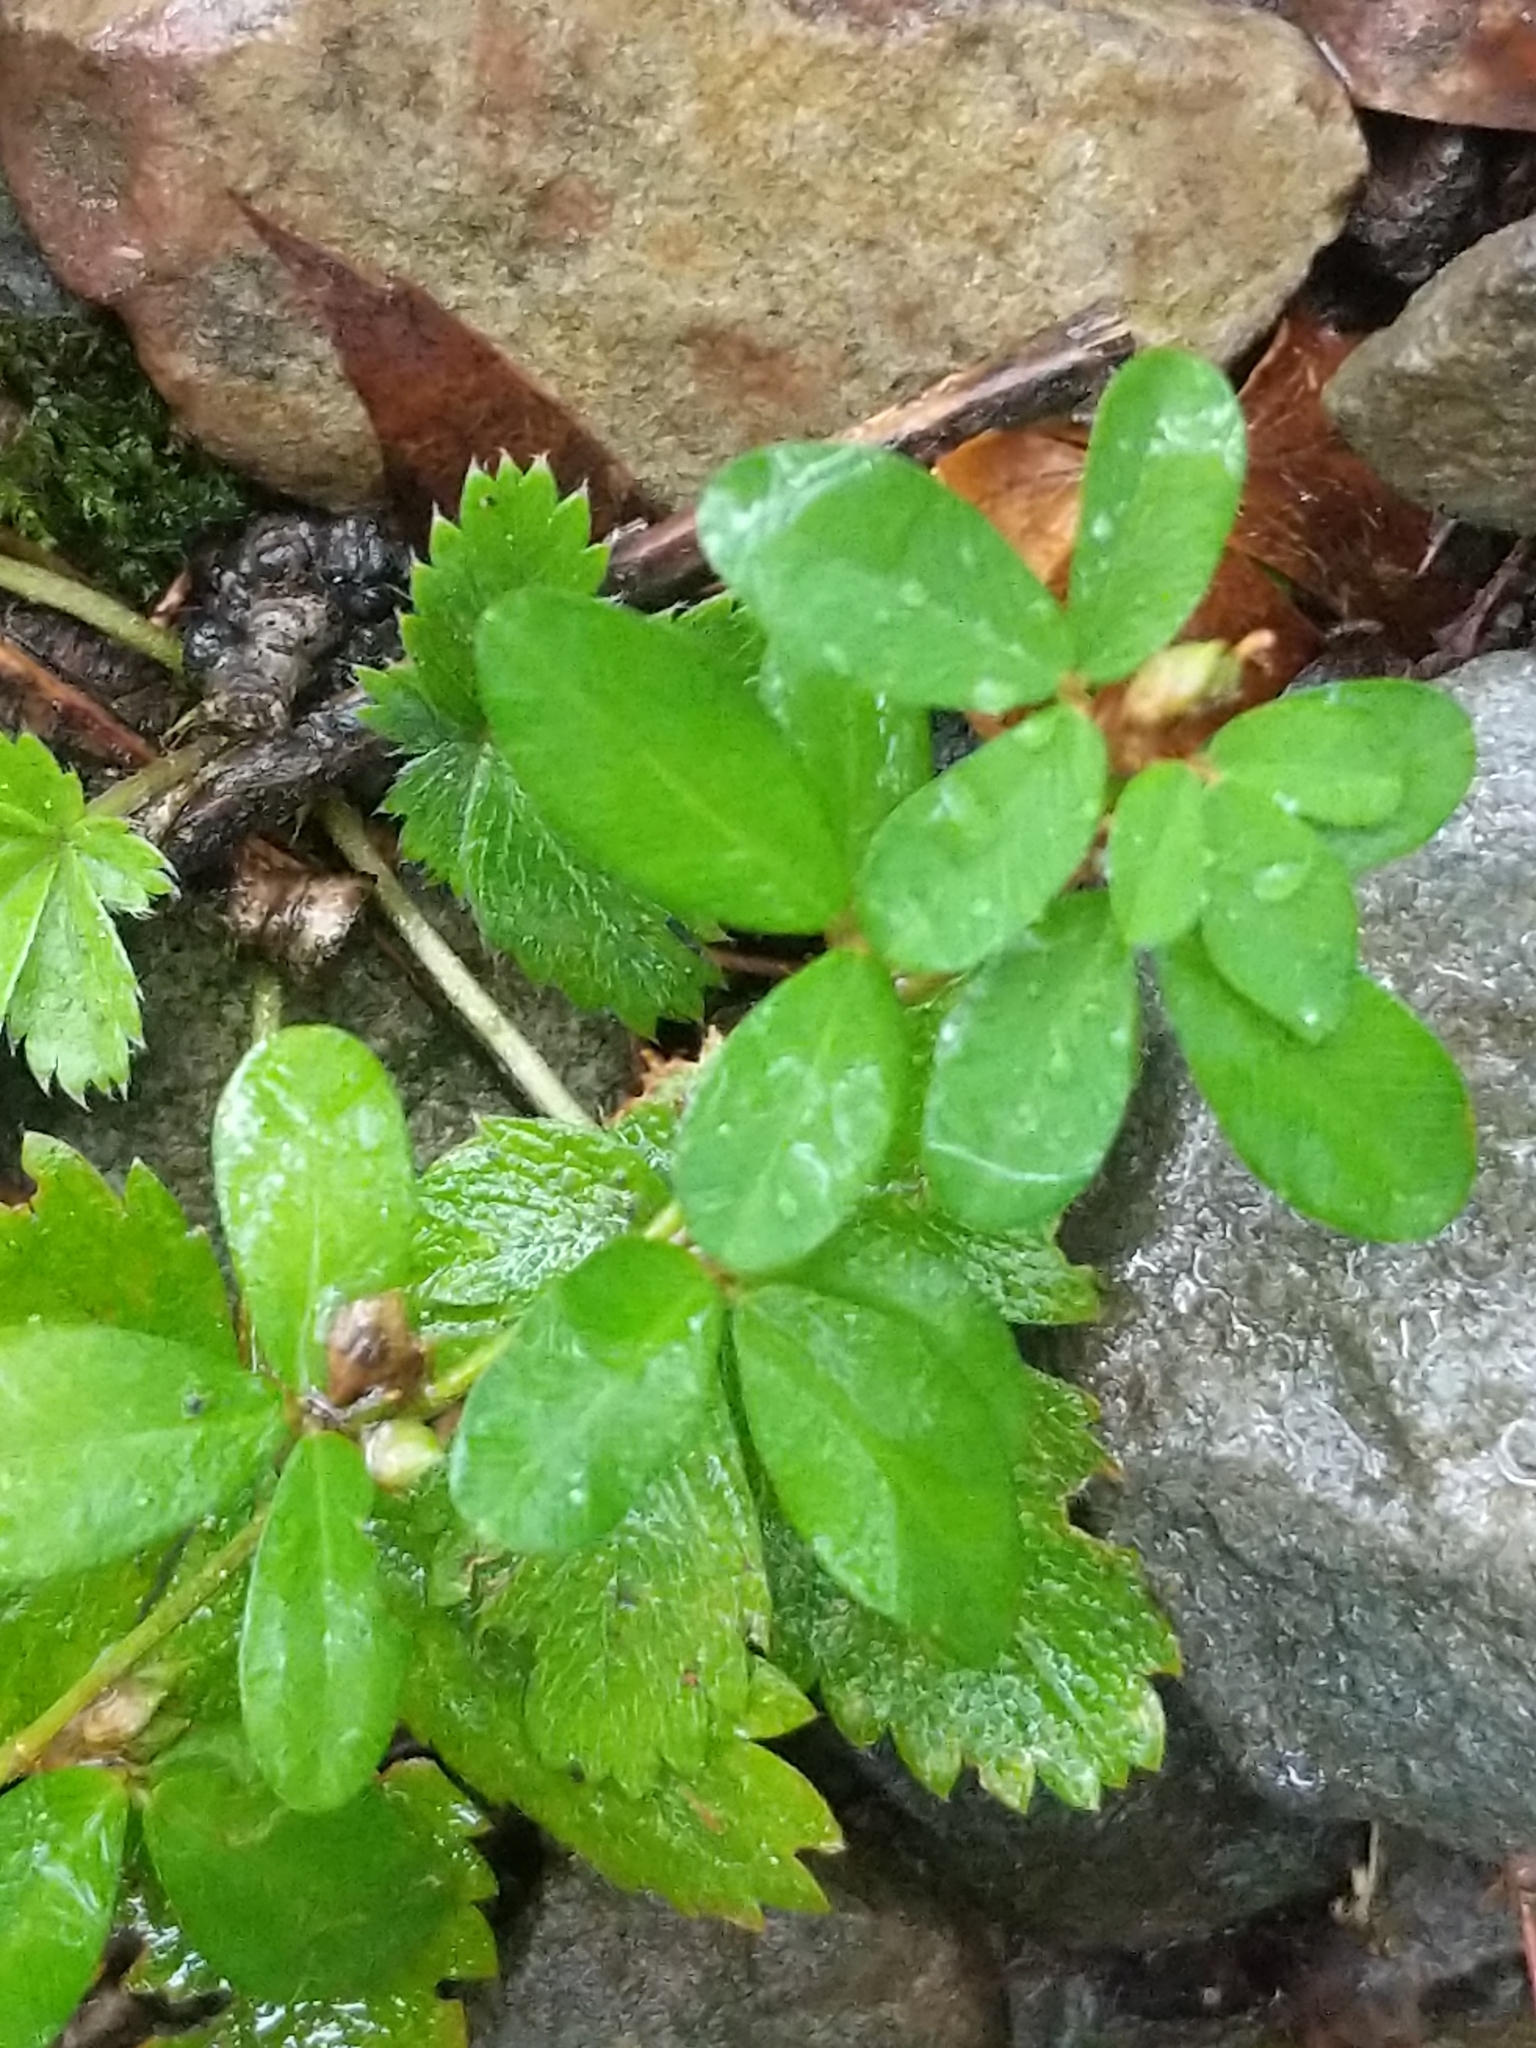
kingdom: Plantae
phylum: Tracheophyta
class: Magnoliopsida
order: Fabales
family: Fabaceae
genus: Kummerowia
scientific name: Kummerowia striata
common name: Japanese clover
